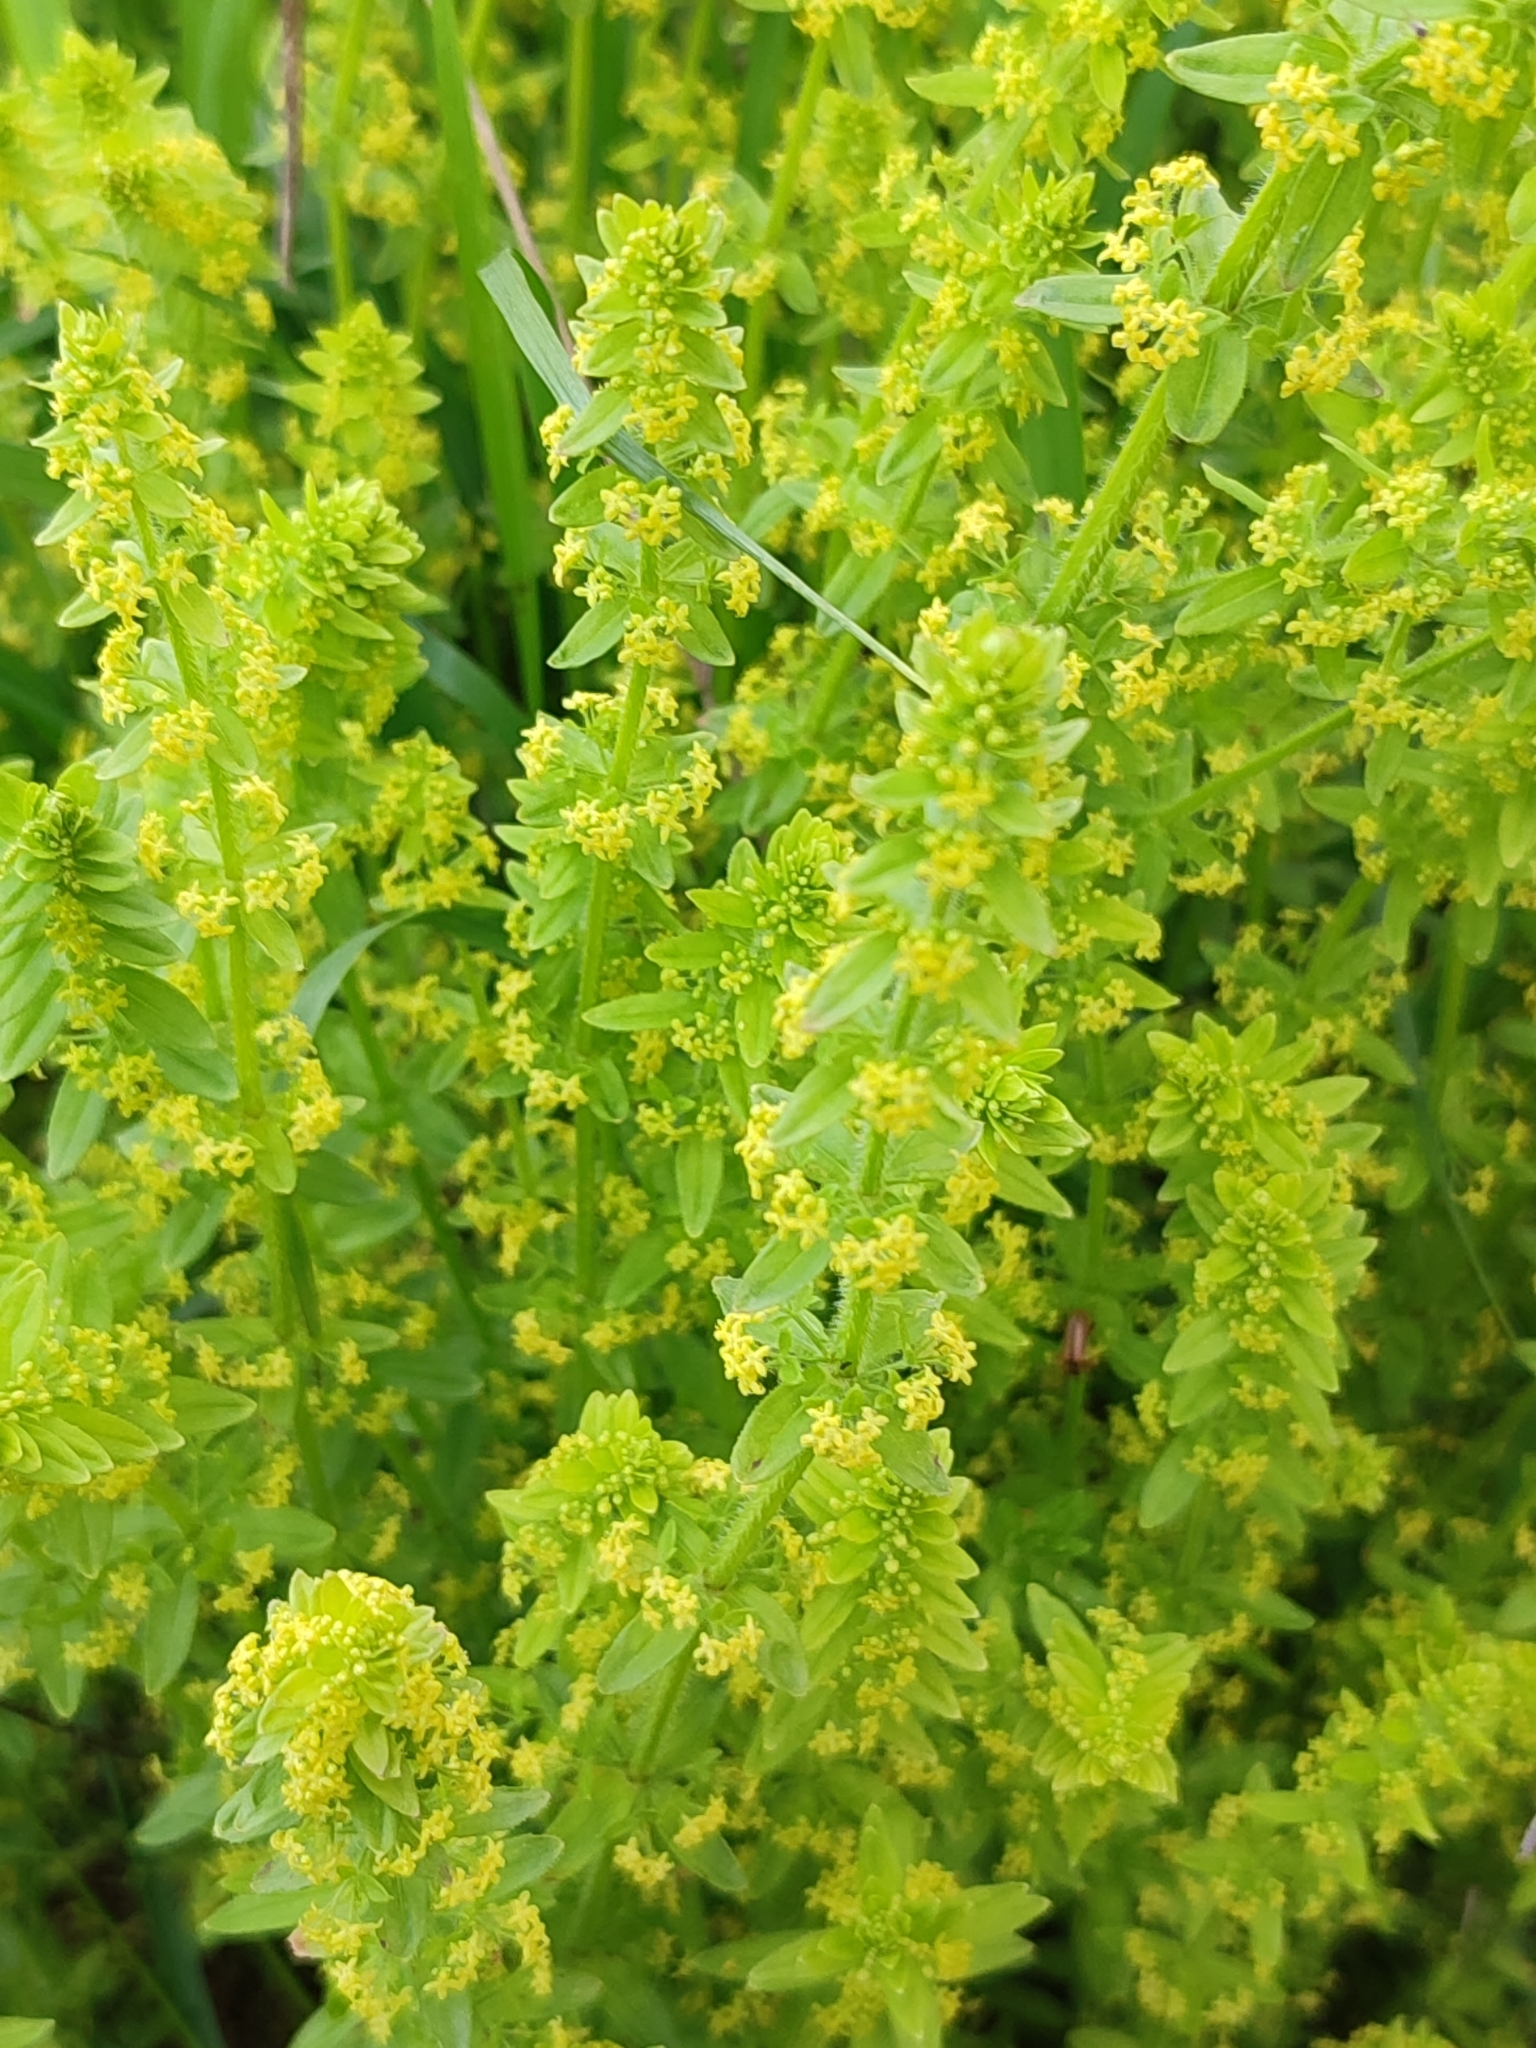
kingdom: Plantae
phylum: Tracheophyta
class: Magnoliopsida
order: Gentianales
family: Rubiaceae
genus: Cruciata
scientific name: Cruciata laevipes
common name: Crosswort
